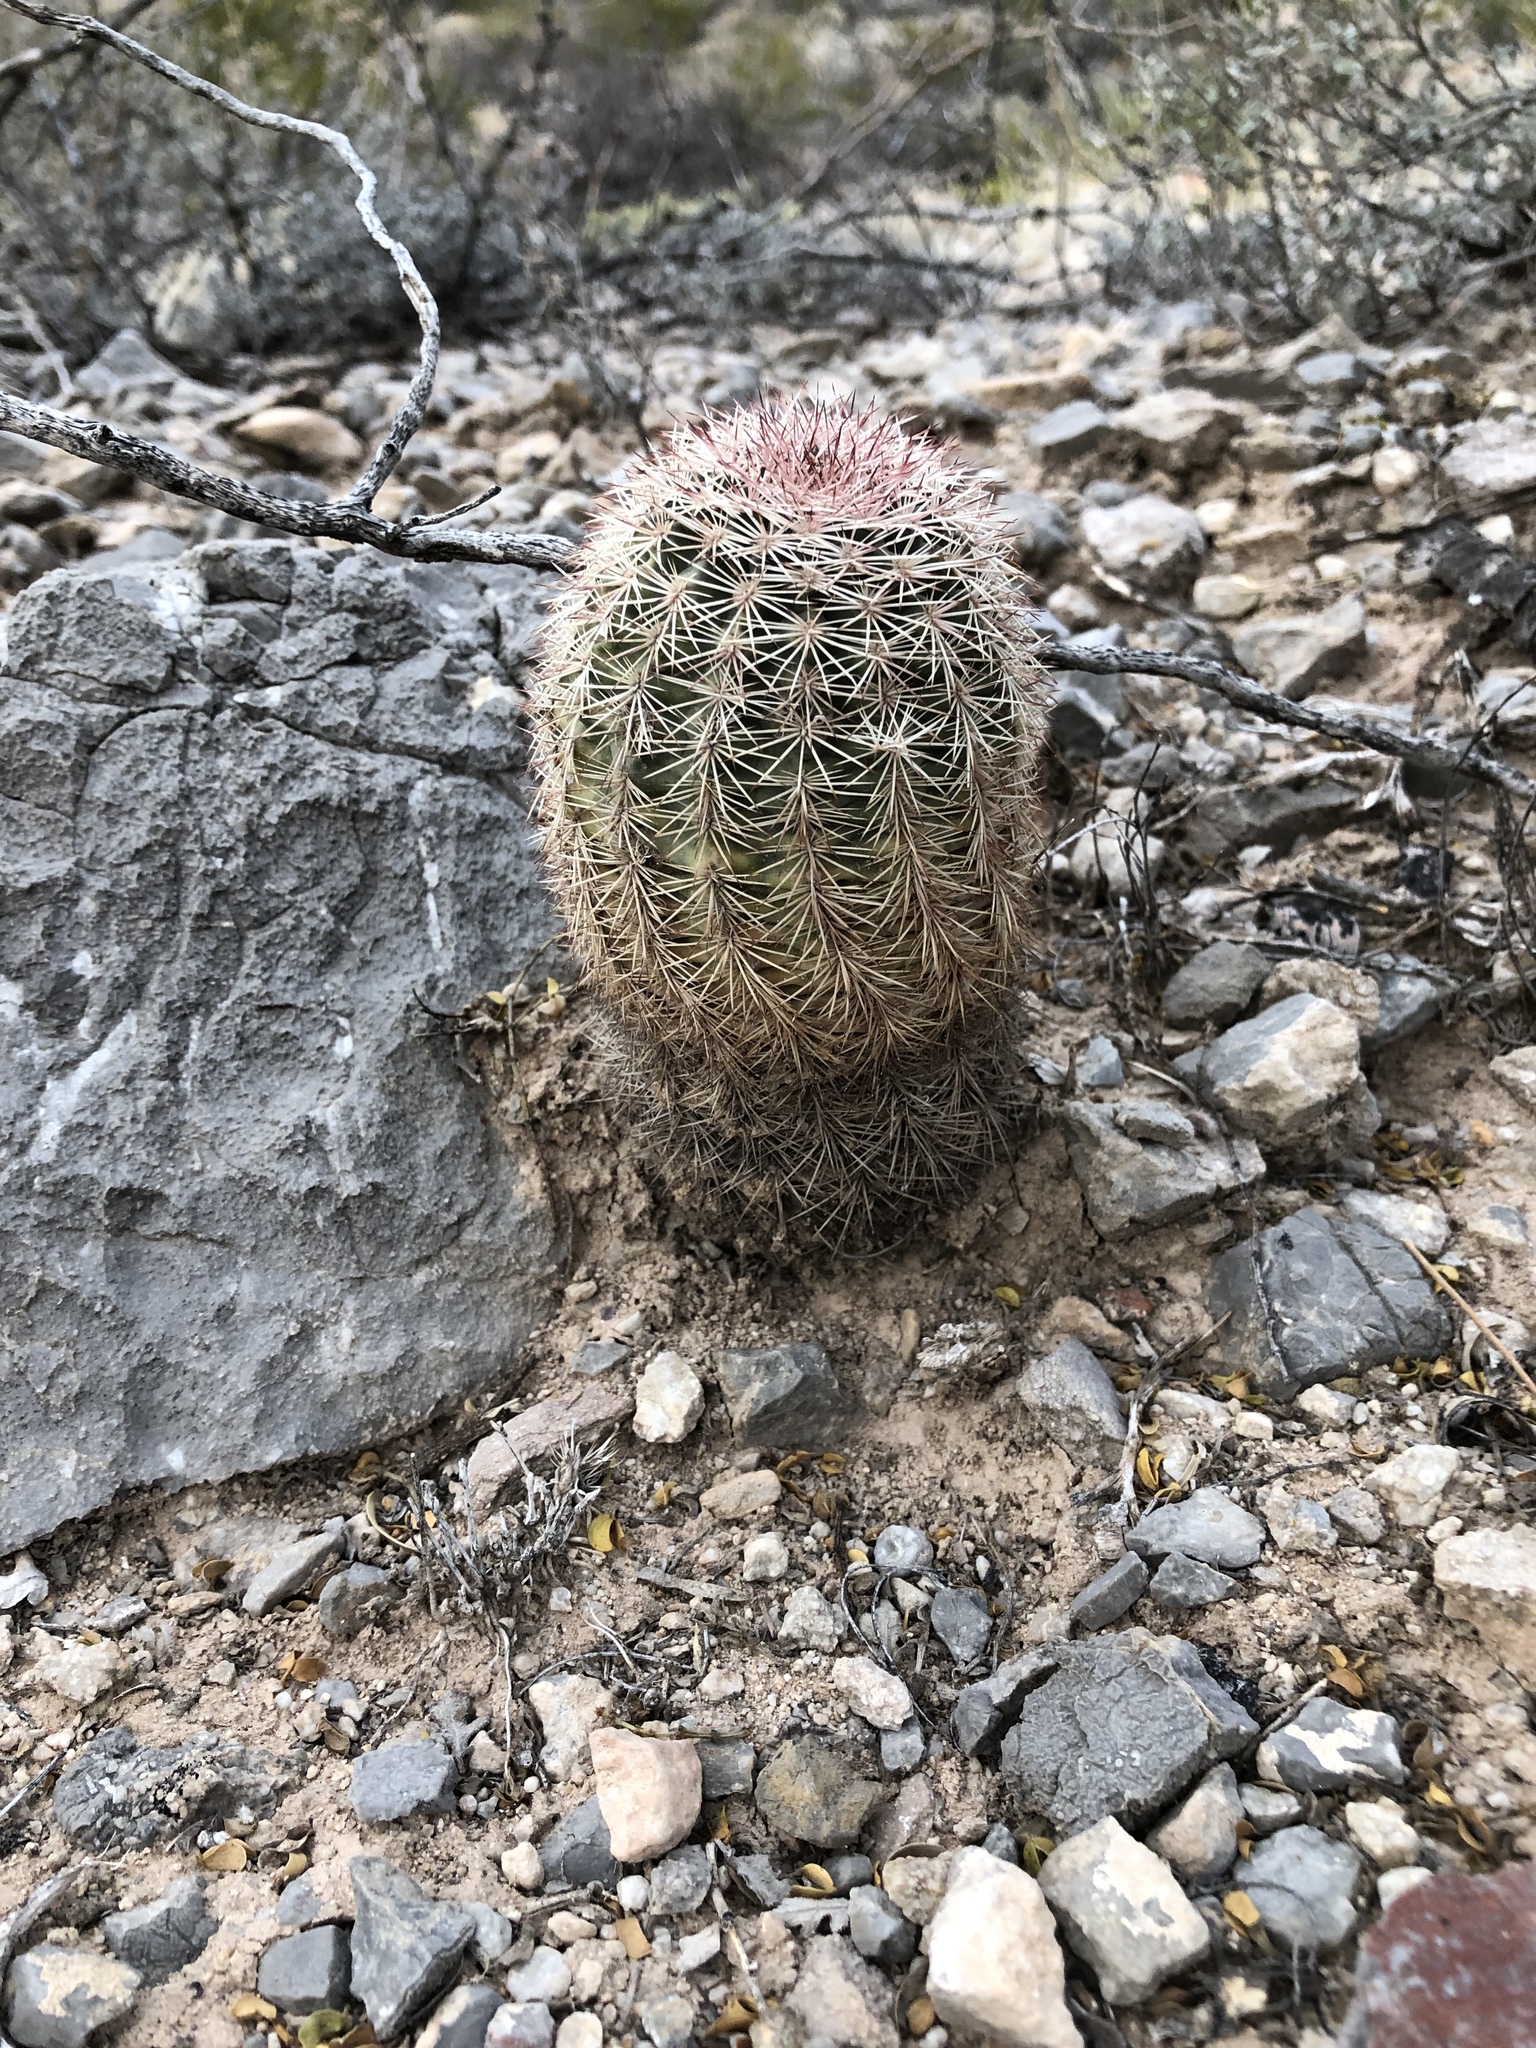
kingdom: Plantae
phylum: Tracheophyta
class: Magnoliopsida
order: Caryophyllales
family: Cactaceae
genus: Echinocereus
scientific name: Echinocereus dasyacanthus
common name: Spiny hedgehog cactus
